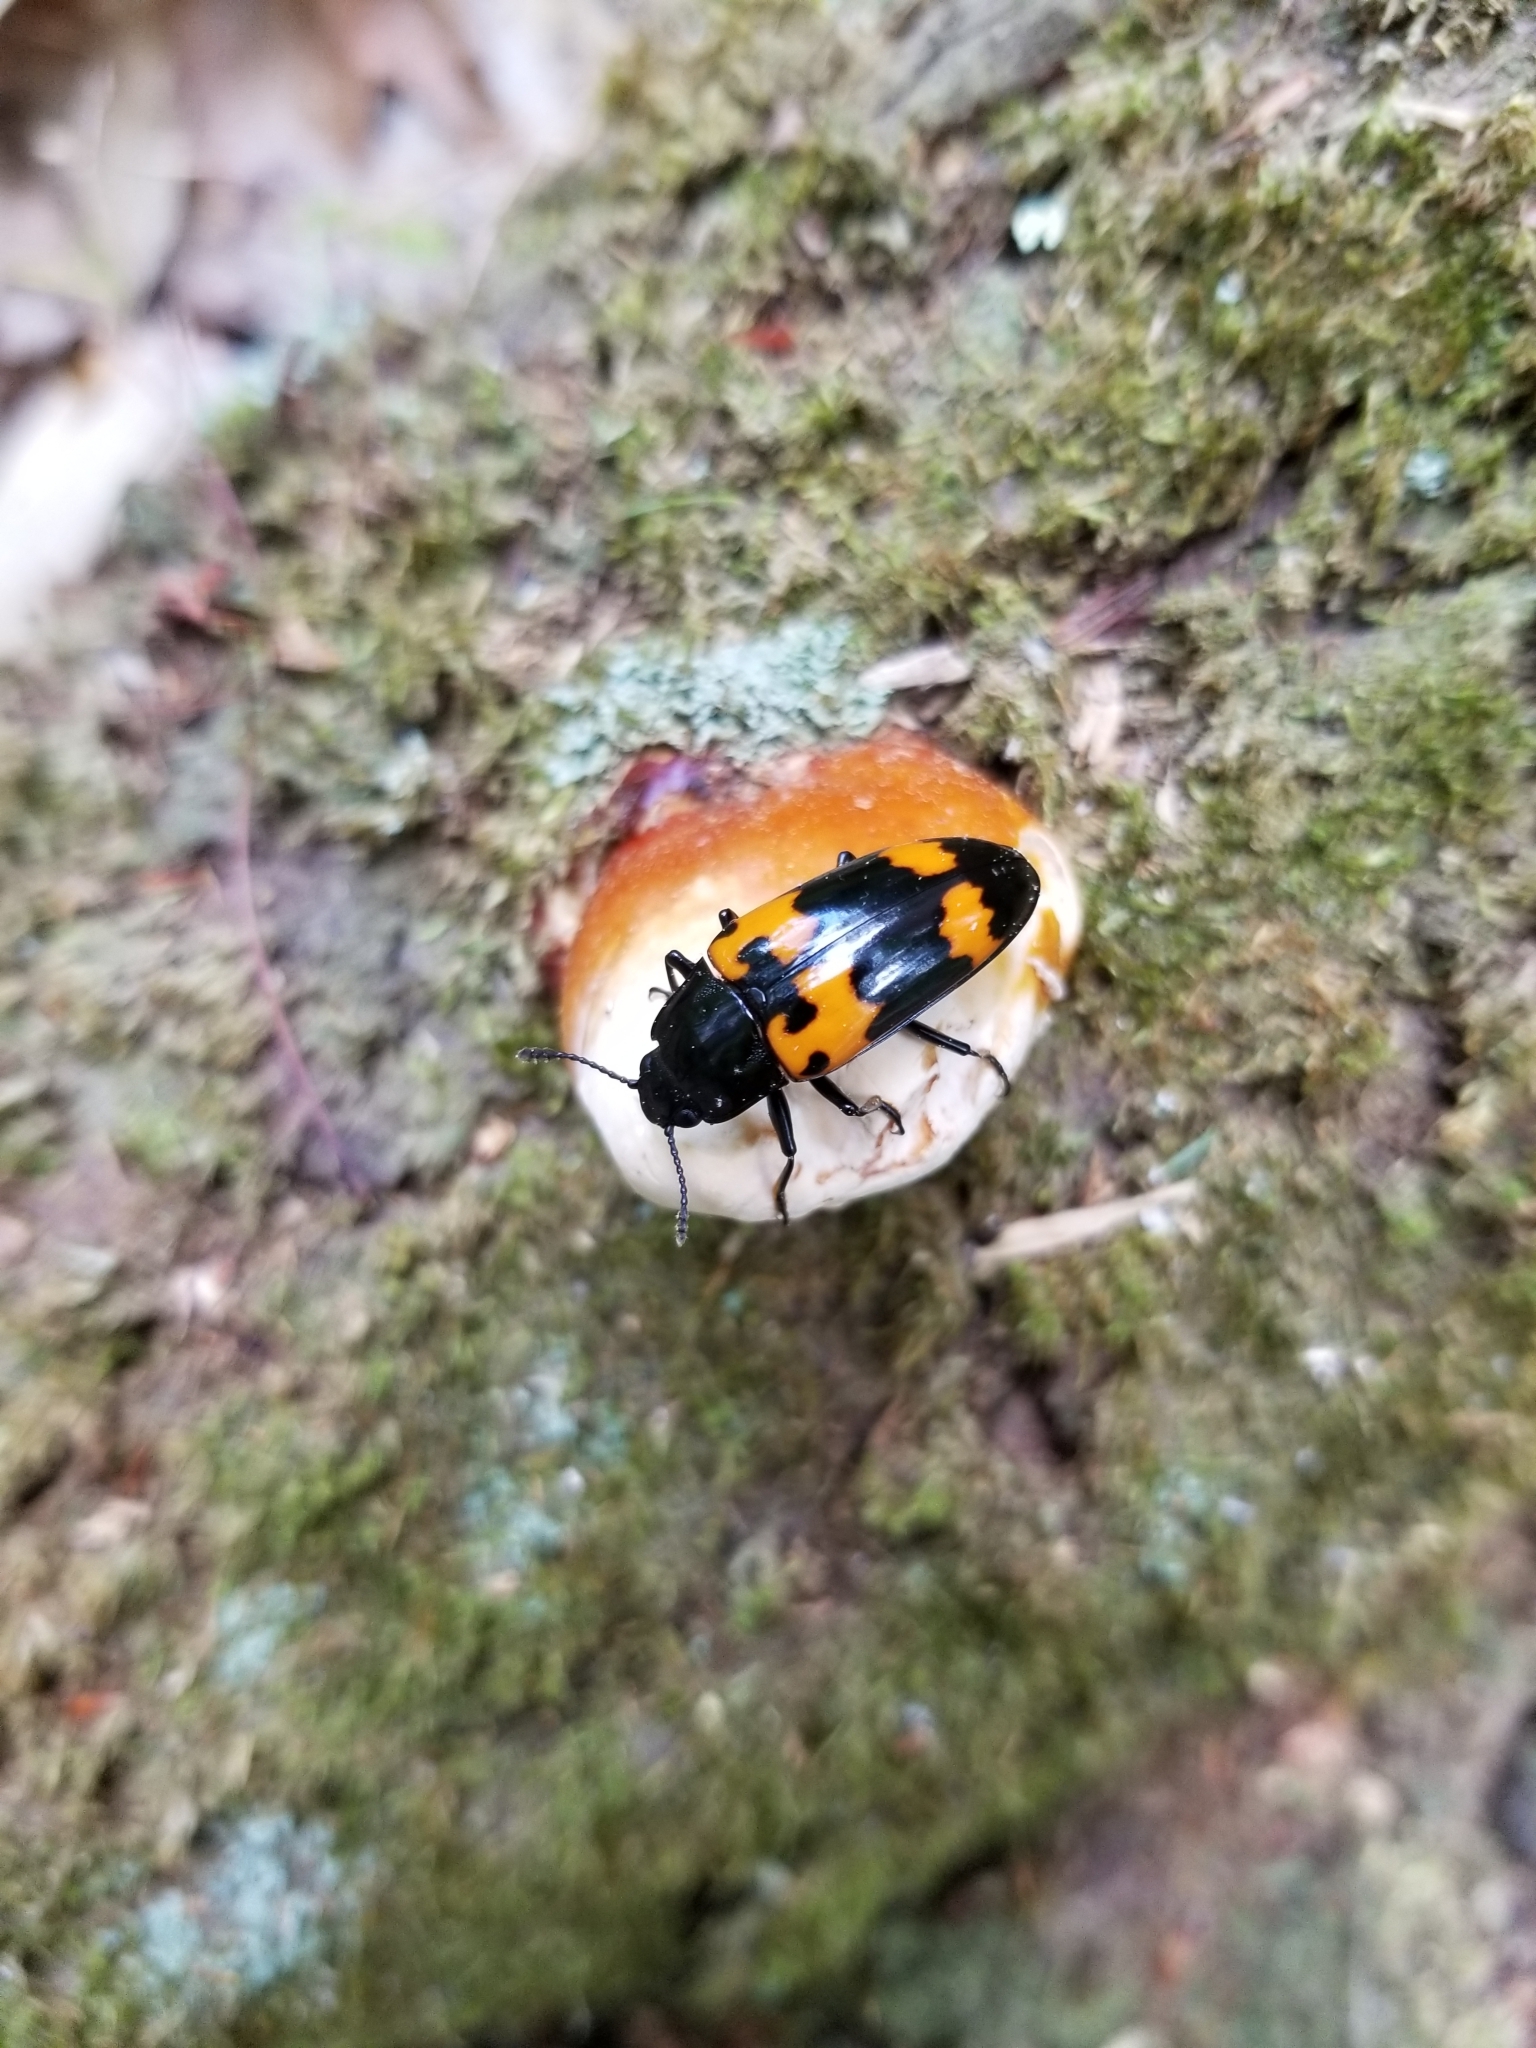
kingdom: Animalia
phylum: Arthropoda
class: Insecta
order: Coleoptera
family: Erotylidae
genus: Megalodacne
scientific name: Megalodacne heros
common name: Pleasing fungus beetle
